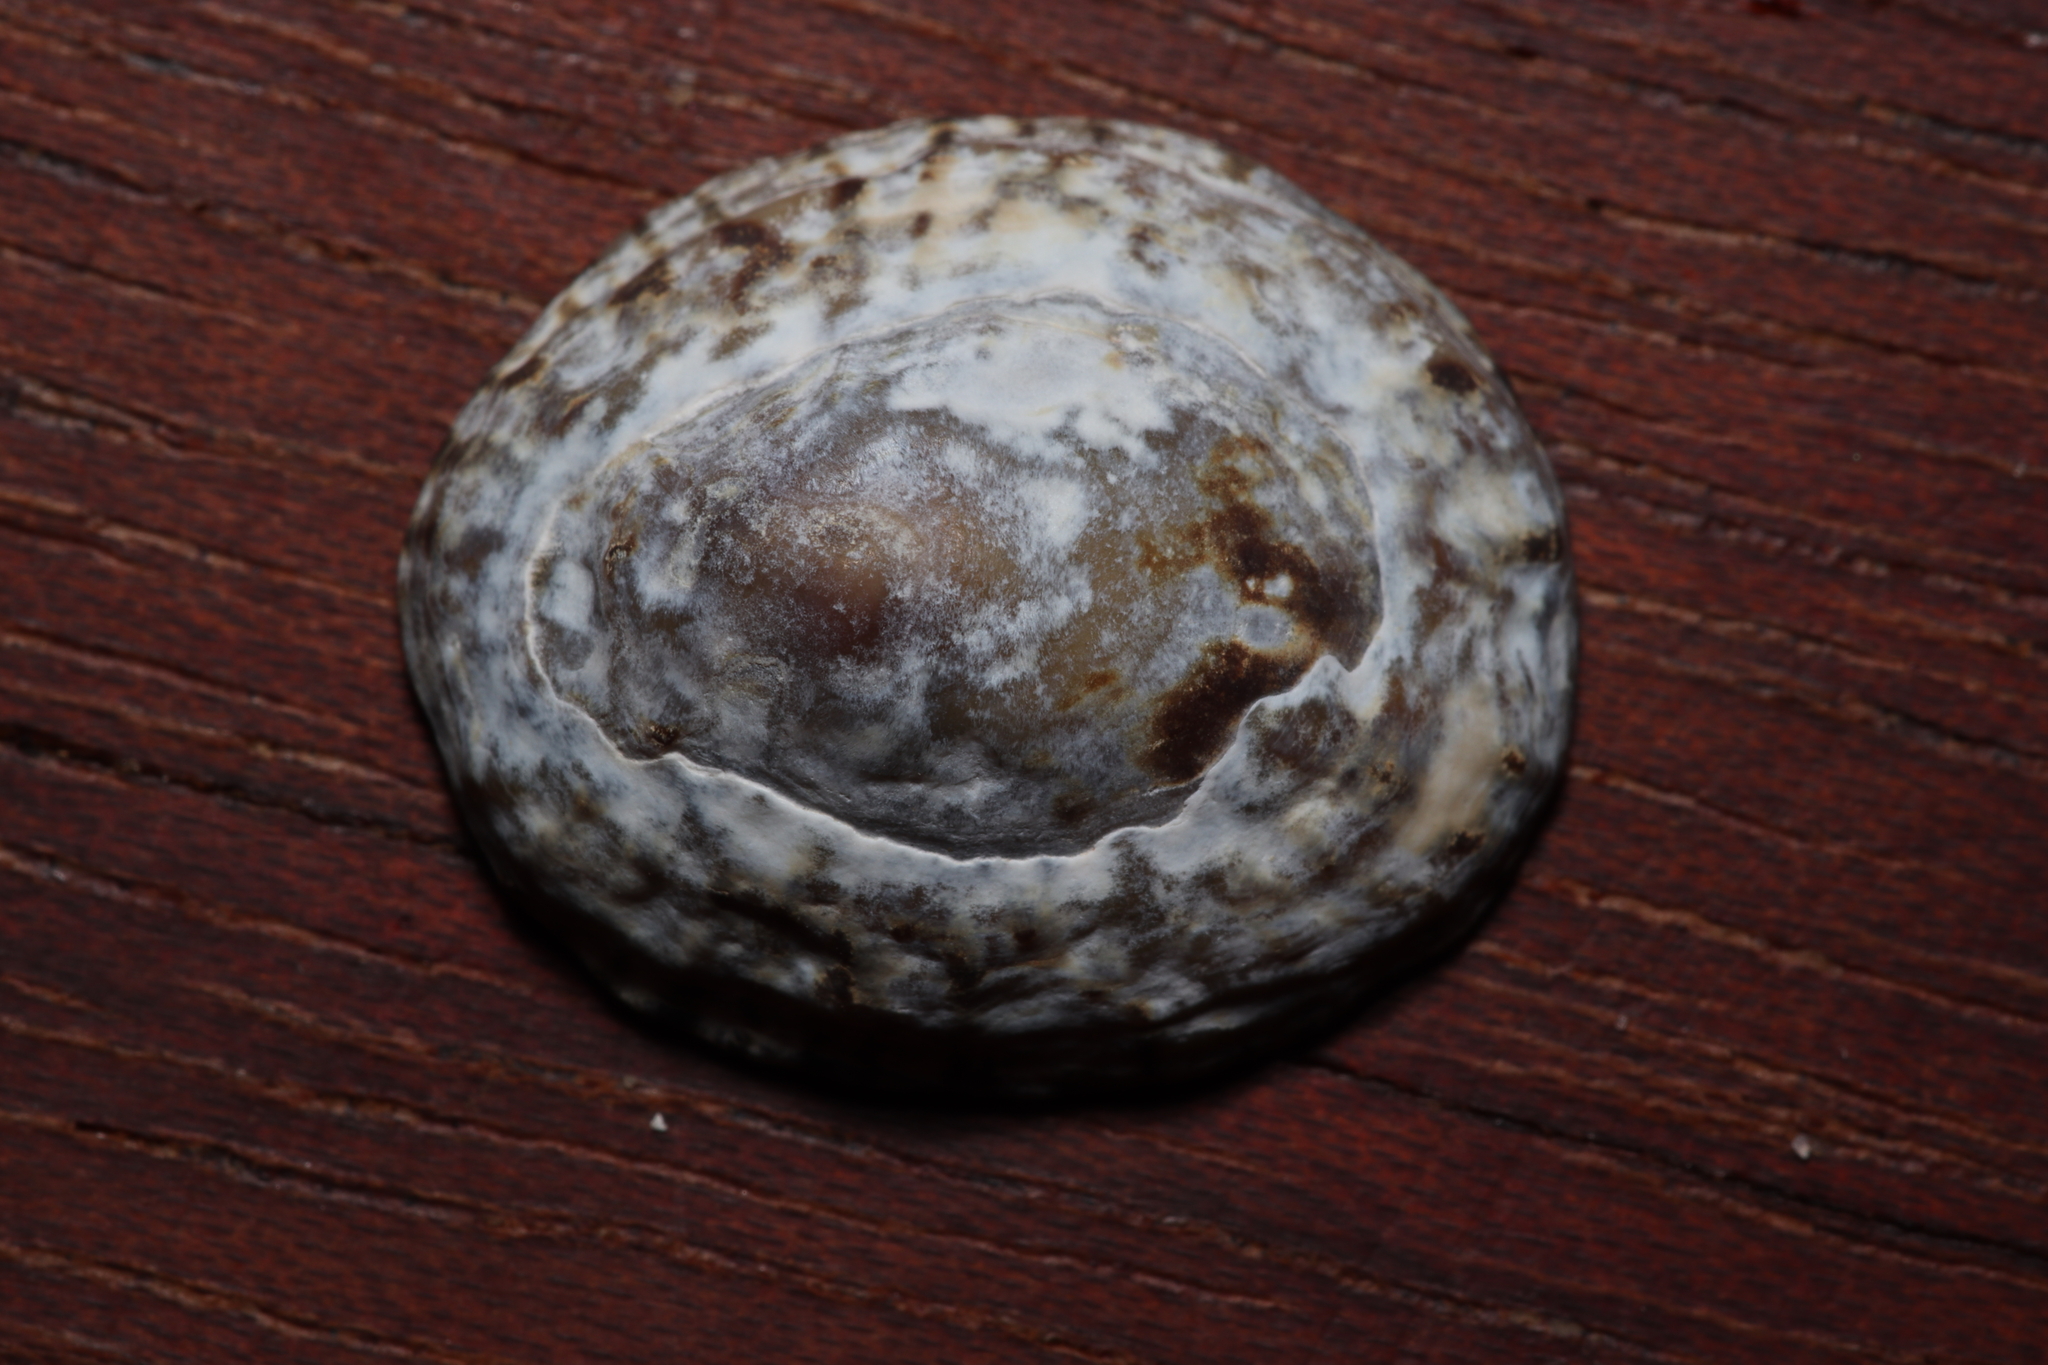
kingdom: Animalia
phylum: Mollusca
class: Gastropoda
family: Lottiidae
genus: Lottia
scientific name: Lottia subrugosa
